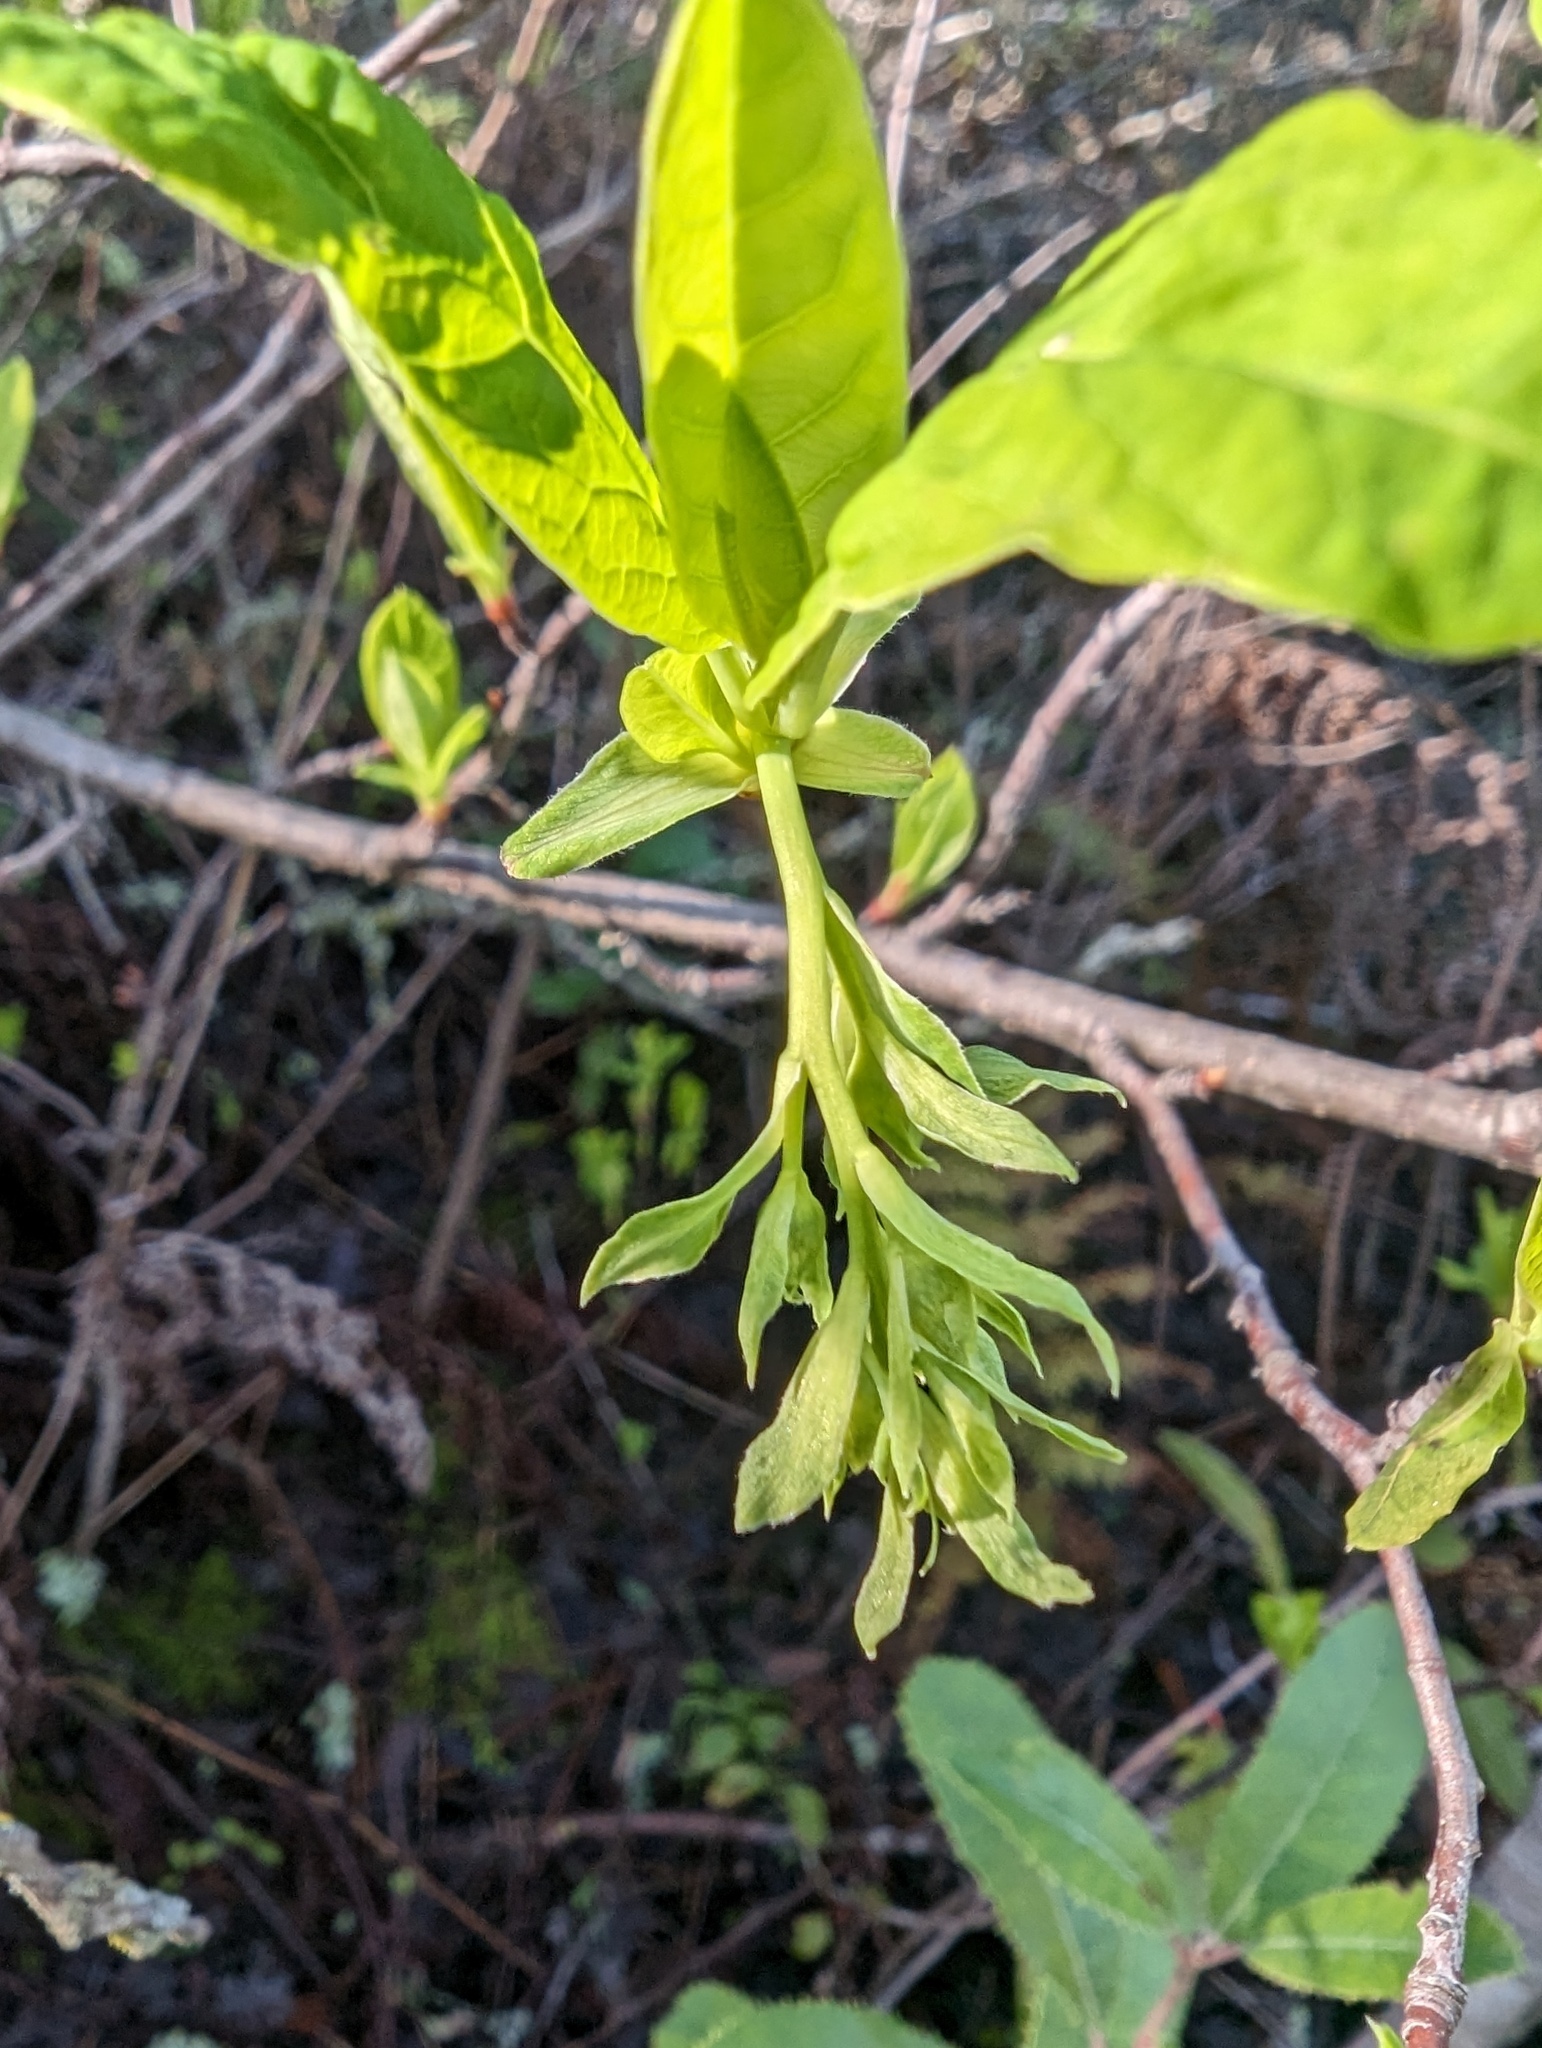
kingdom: Plantae
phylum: Tracheophyta
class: Magnoliopsida
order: Rosales
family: Rosaceae
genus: Oemleria
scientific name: Oemleria cerasiformis
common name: Osoberry
